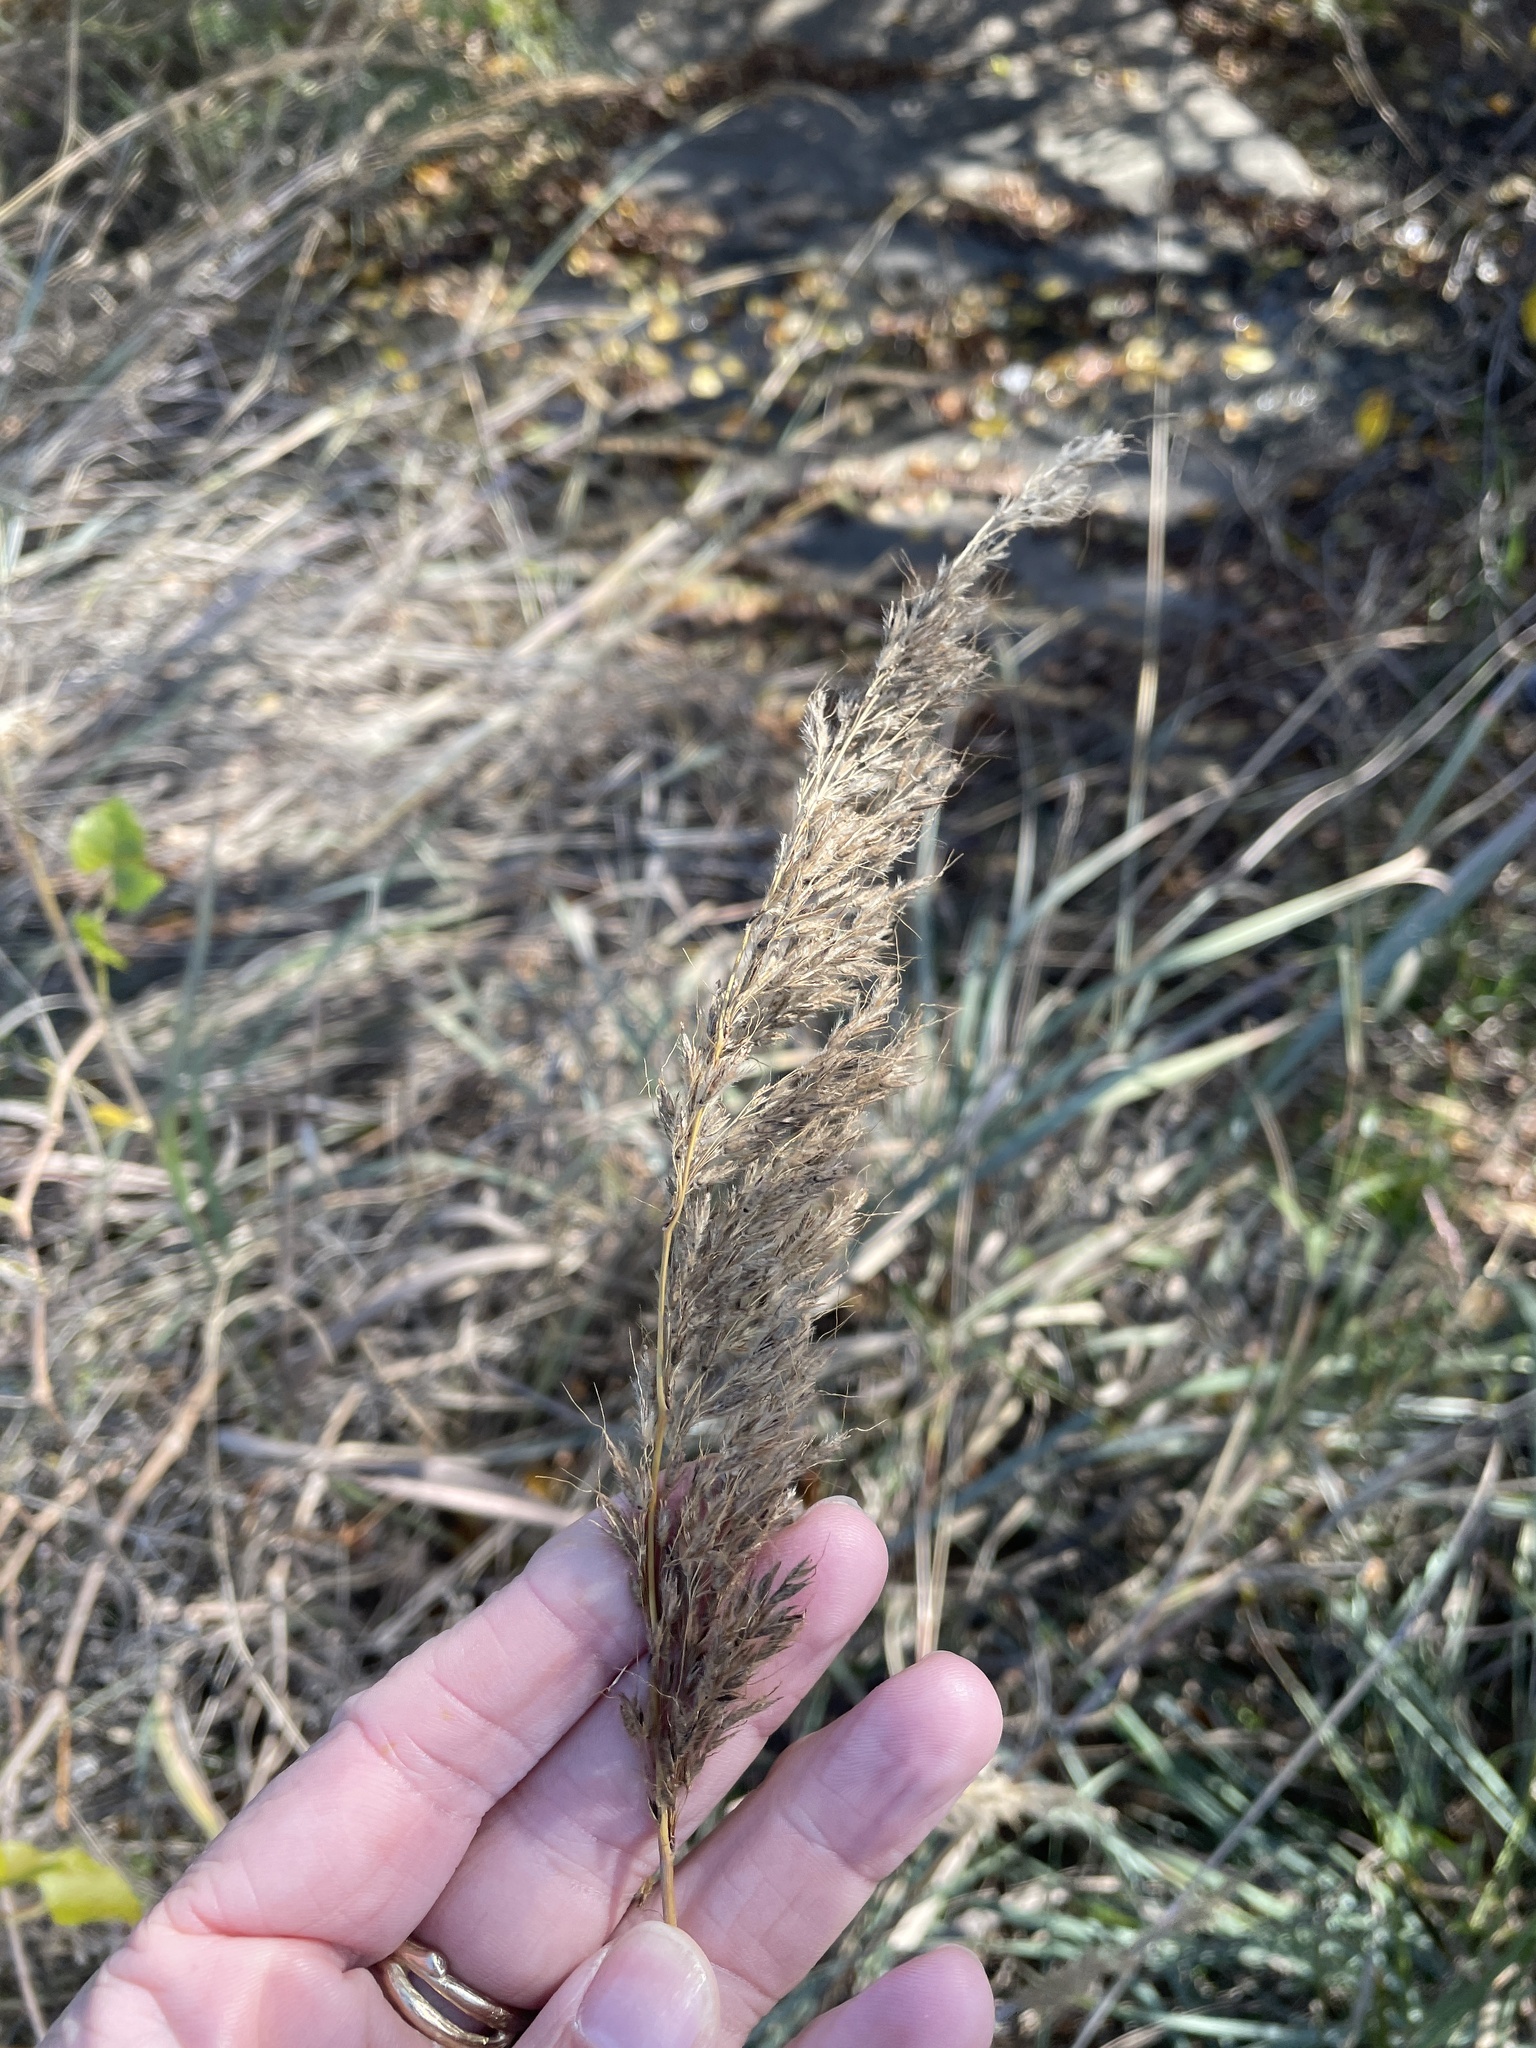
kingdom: Plantae
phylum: Tracheophyta
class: Liliopsida
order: Poales
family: Poaceae
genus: Sorghastrum
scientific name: Sorghastrum nutans
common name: Indian grass
